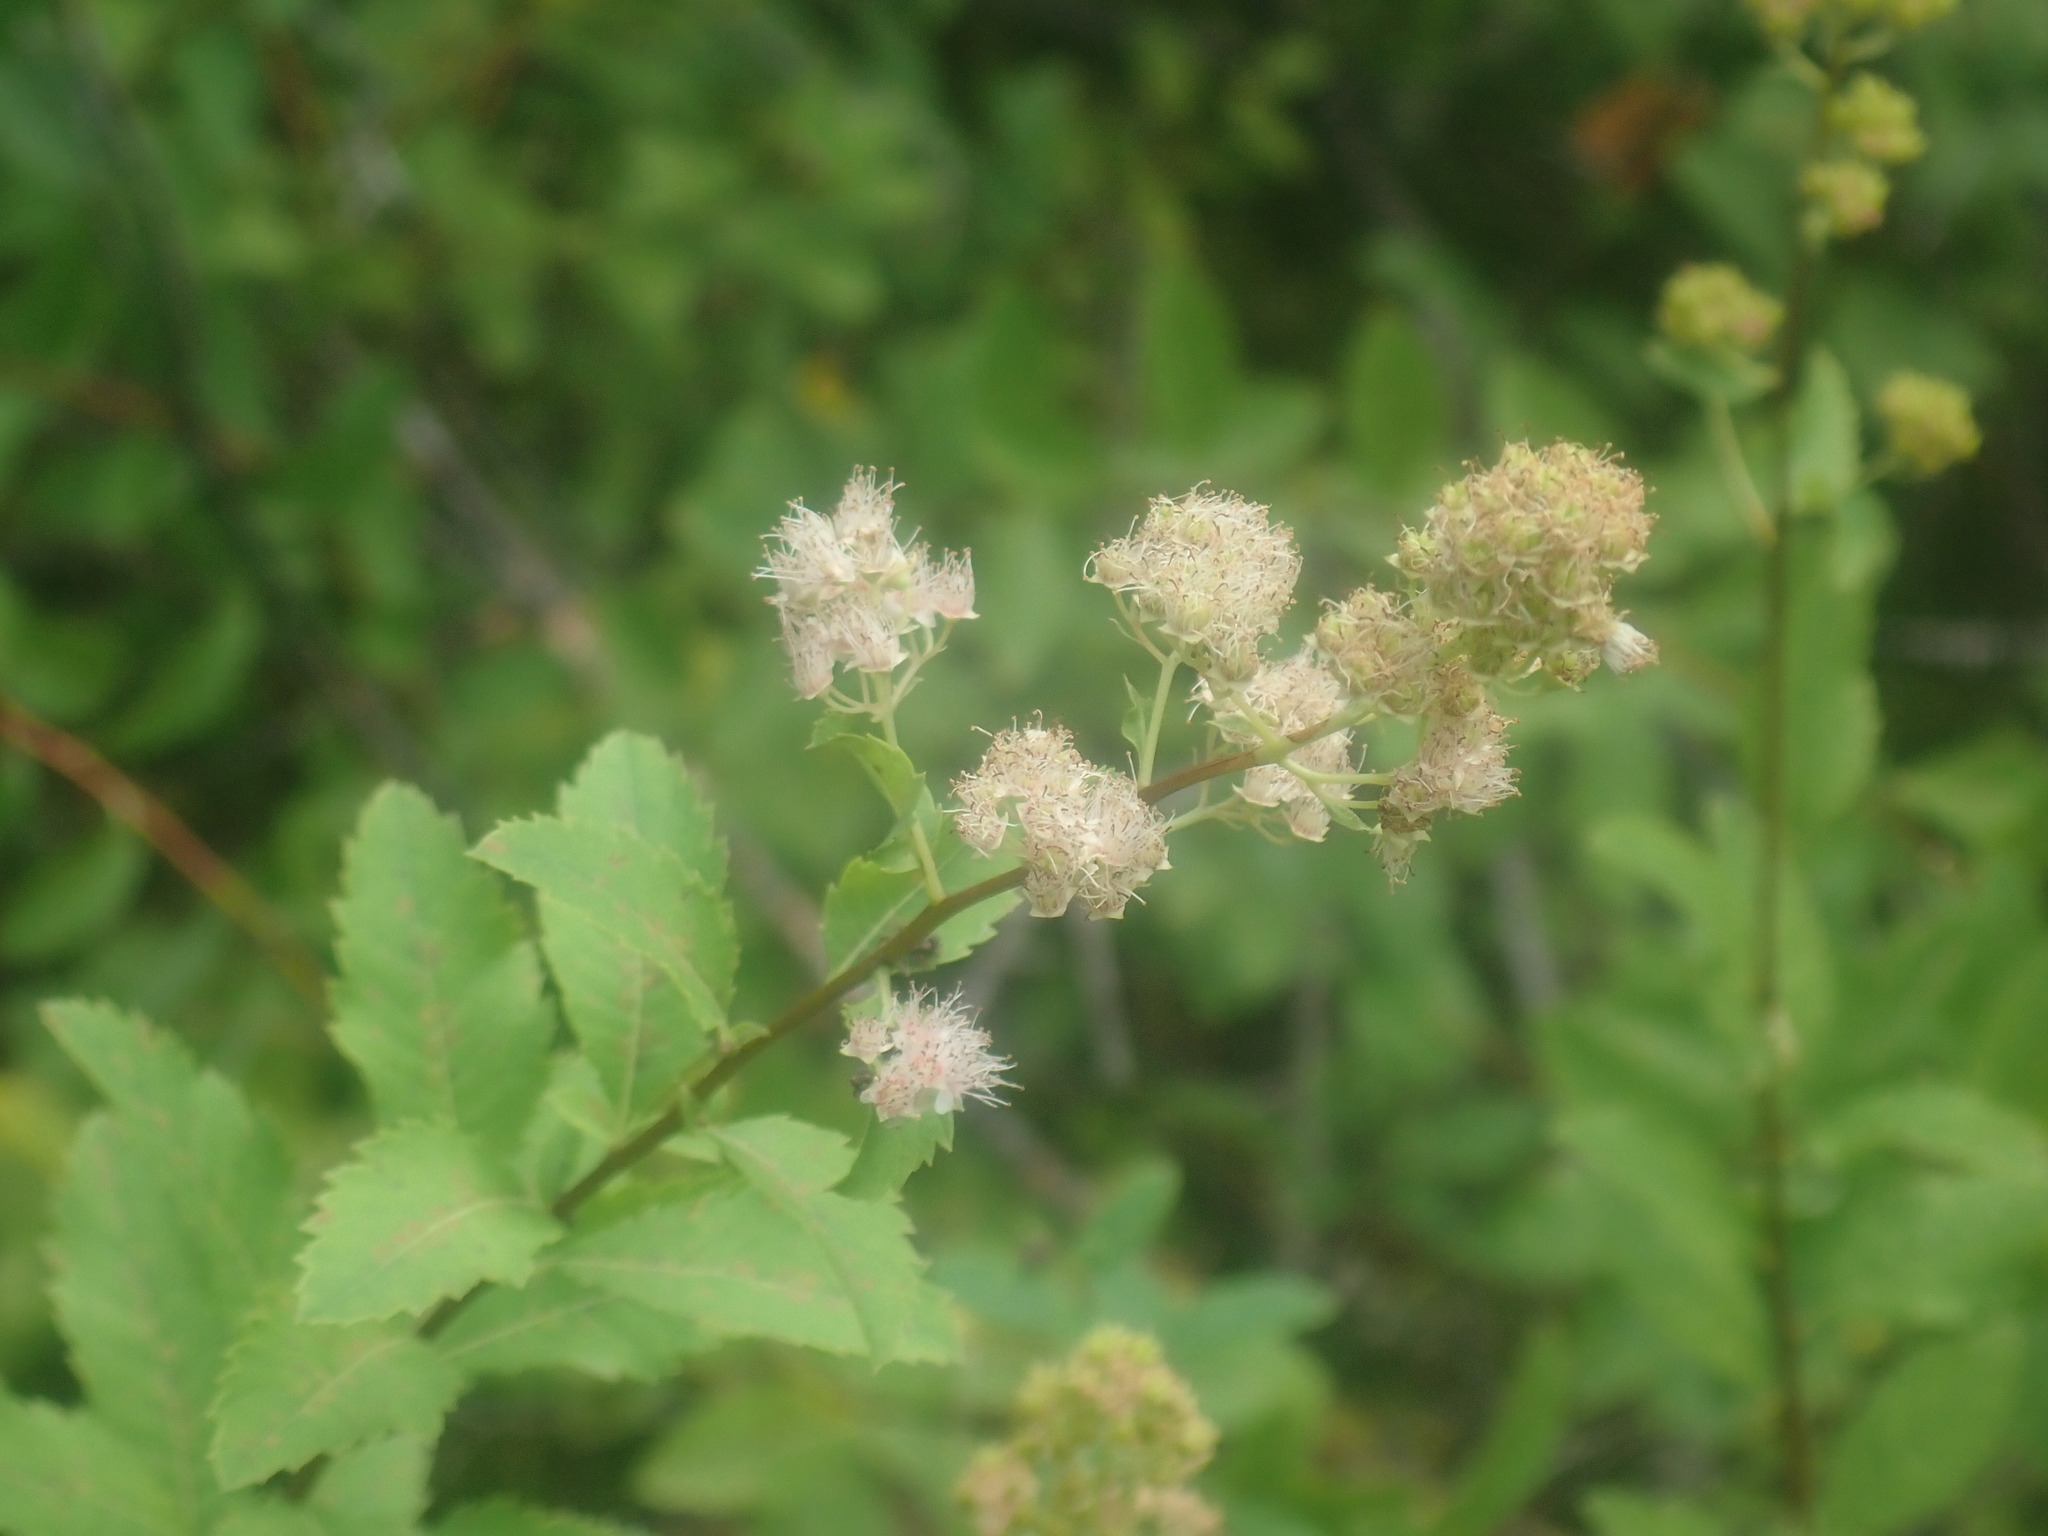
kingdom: Plantae
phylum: Tracheophyta
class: Magnoliopsida
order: Rosales
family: Rosaceae
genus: Spiraea
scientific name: Spiraea alba
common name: Pale bridewort
